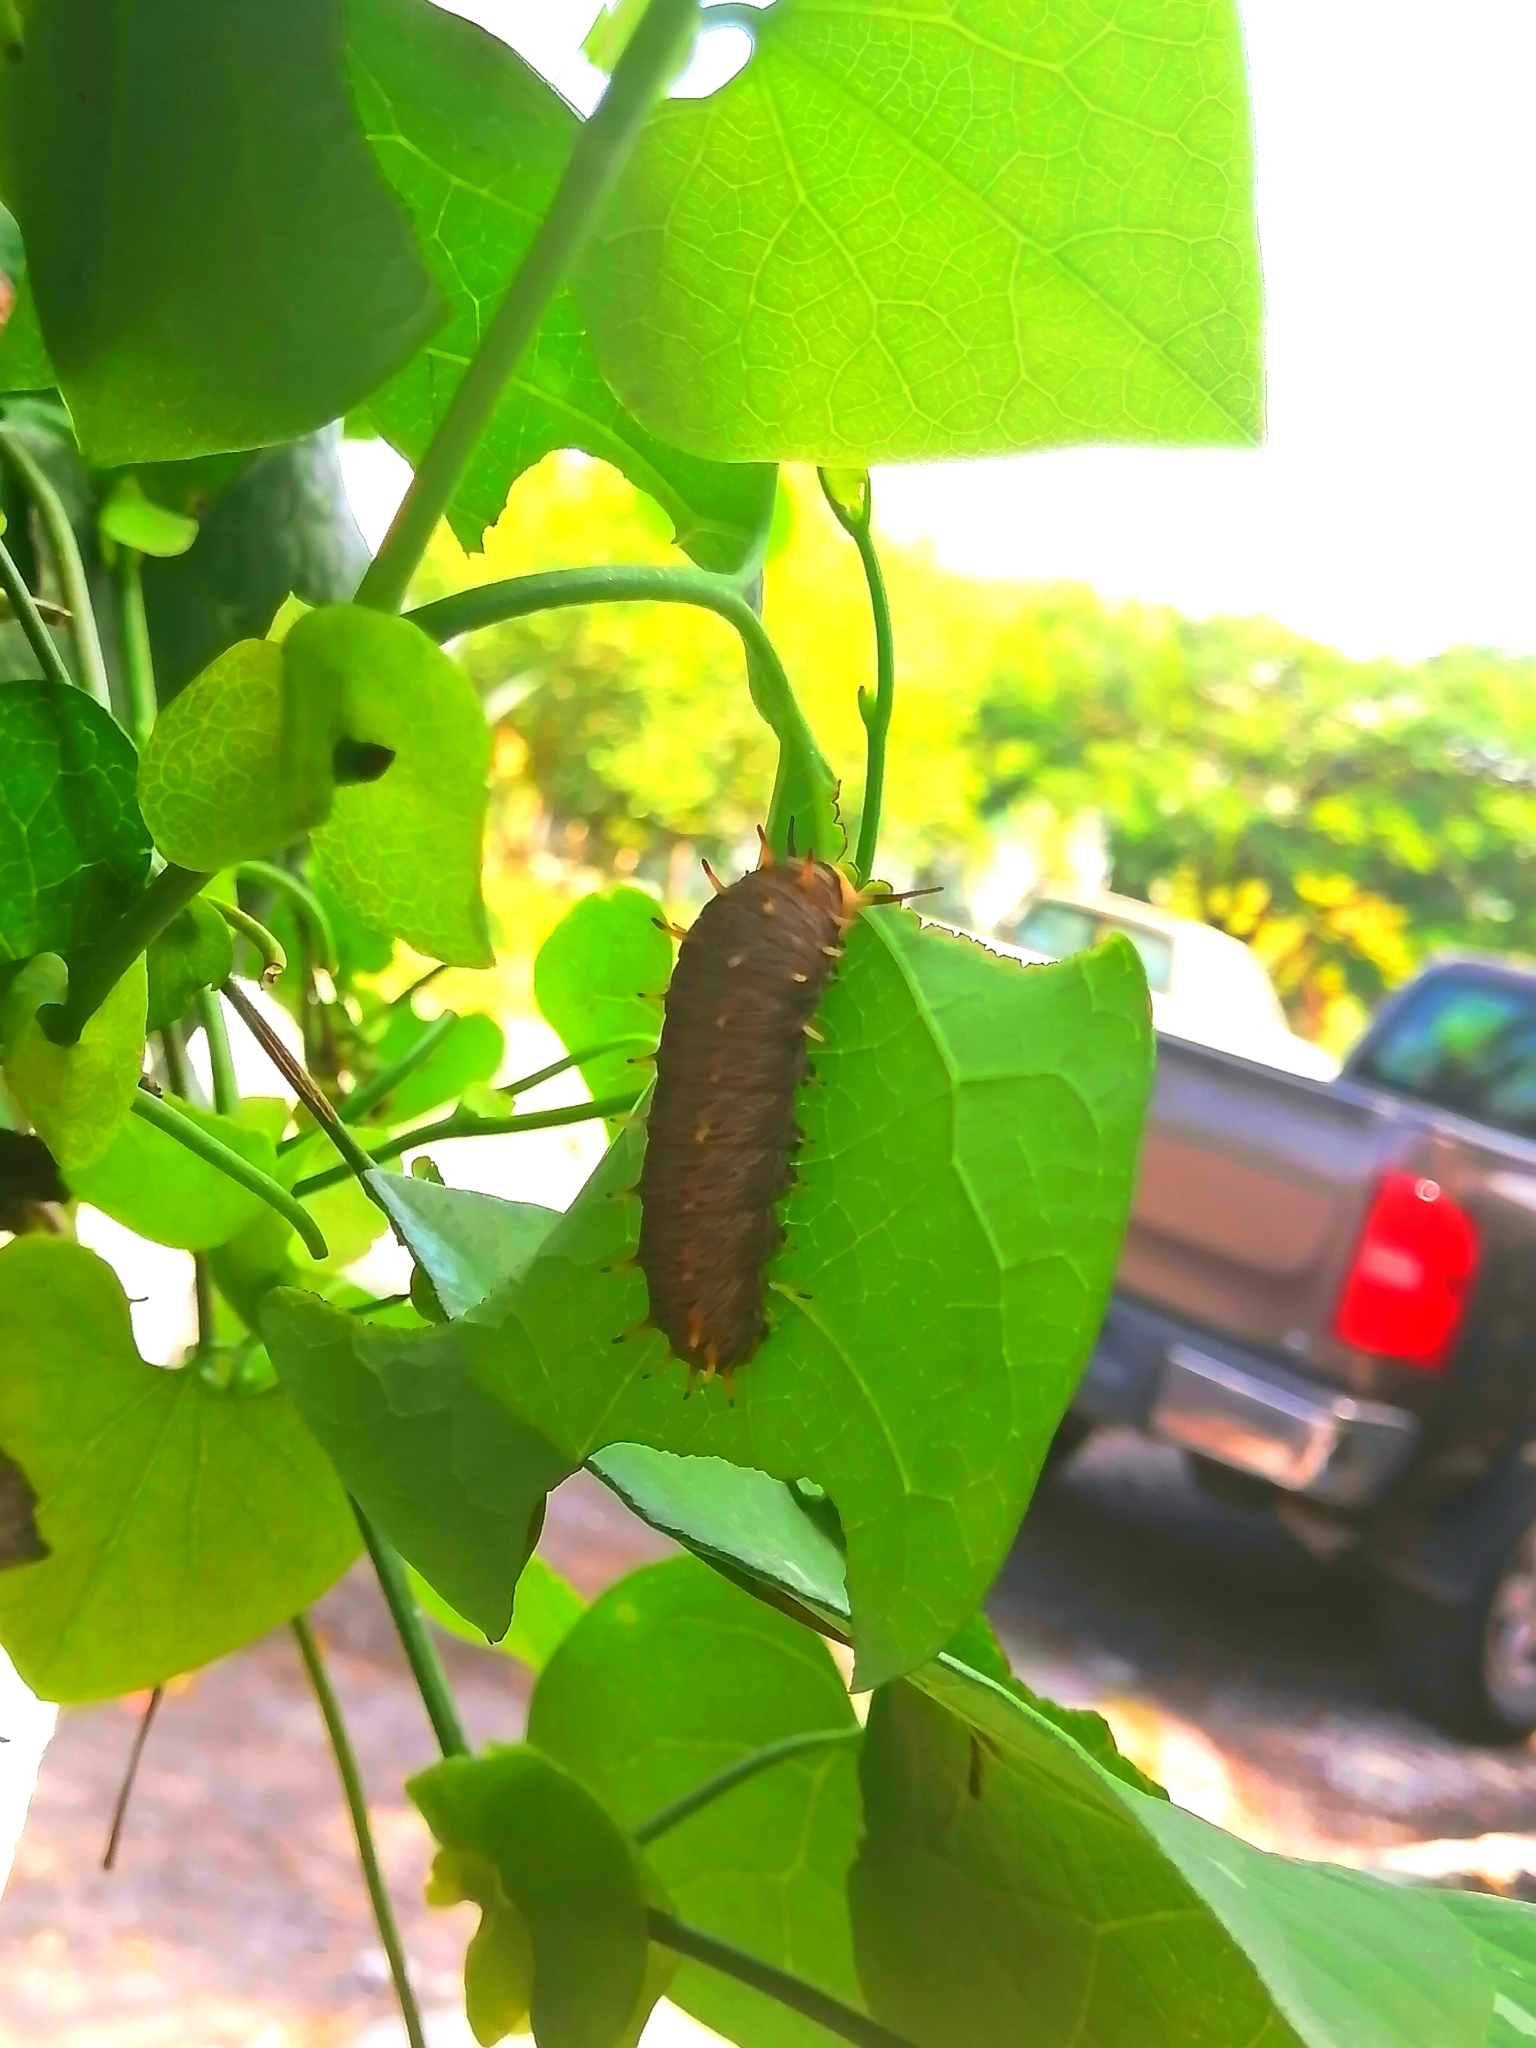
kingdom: Animalia
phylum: Arthropoda
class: Insecta
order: Lepidoptera
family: Papilionidae
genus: Battus
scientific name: Battus polydamas
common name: Polydamas swallowtail
